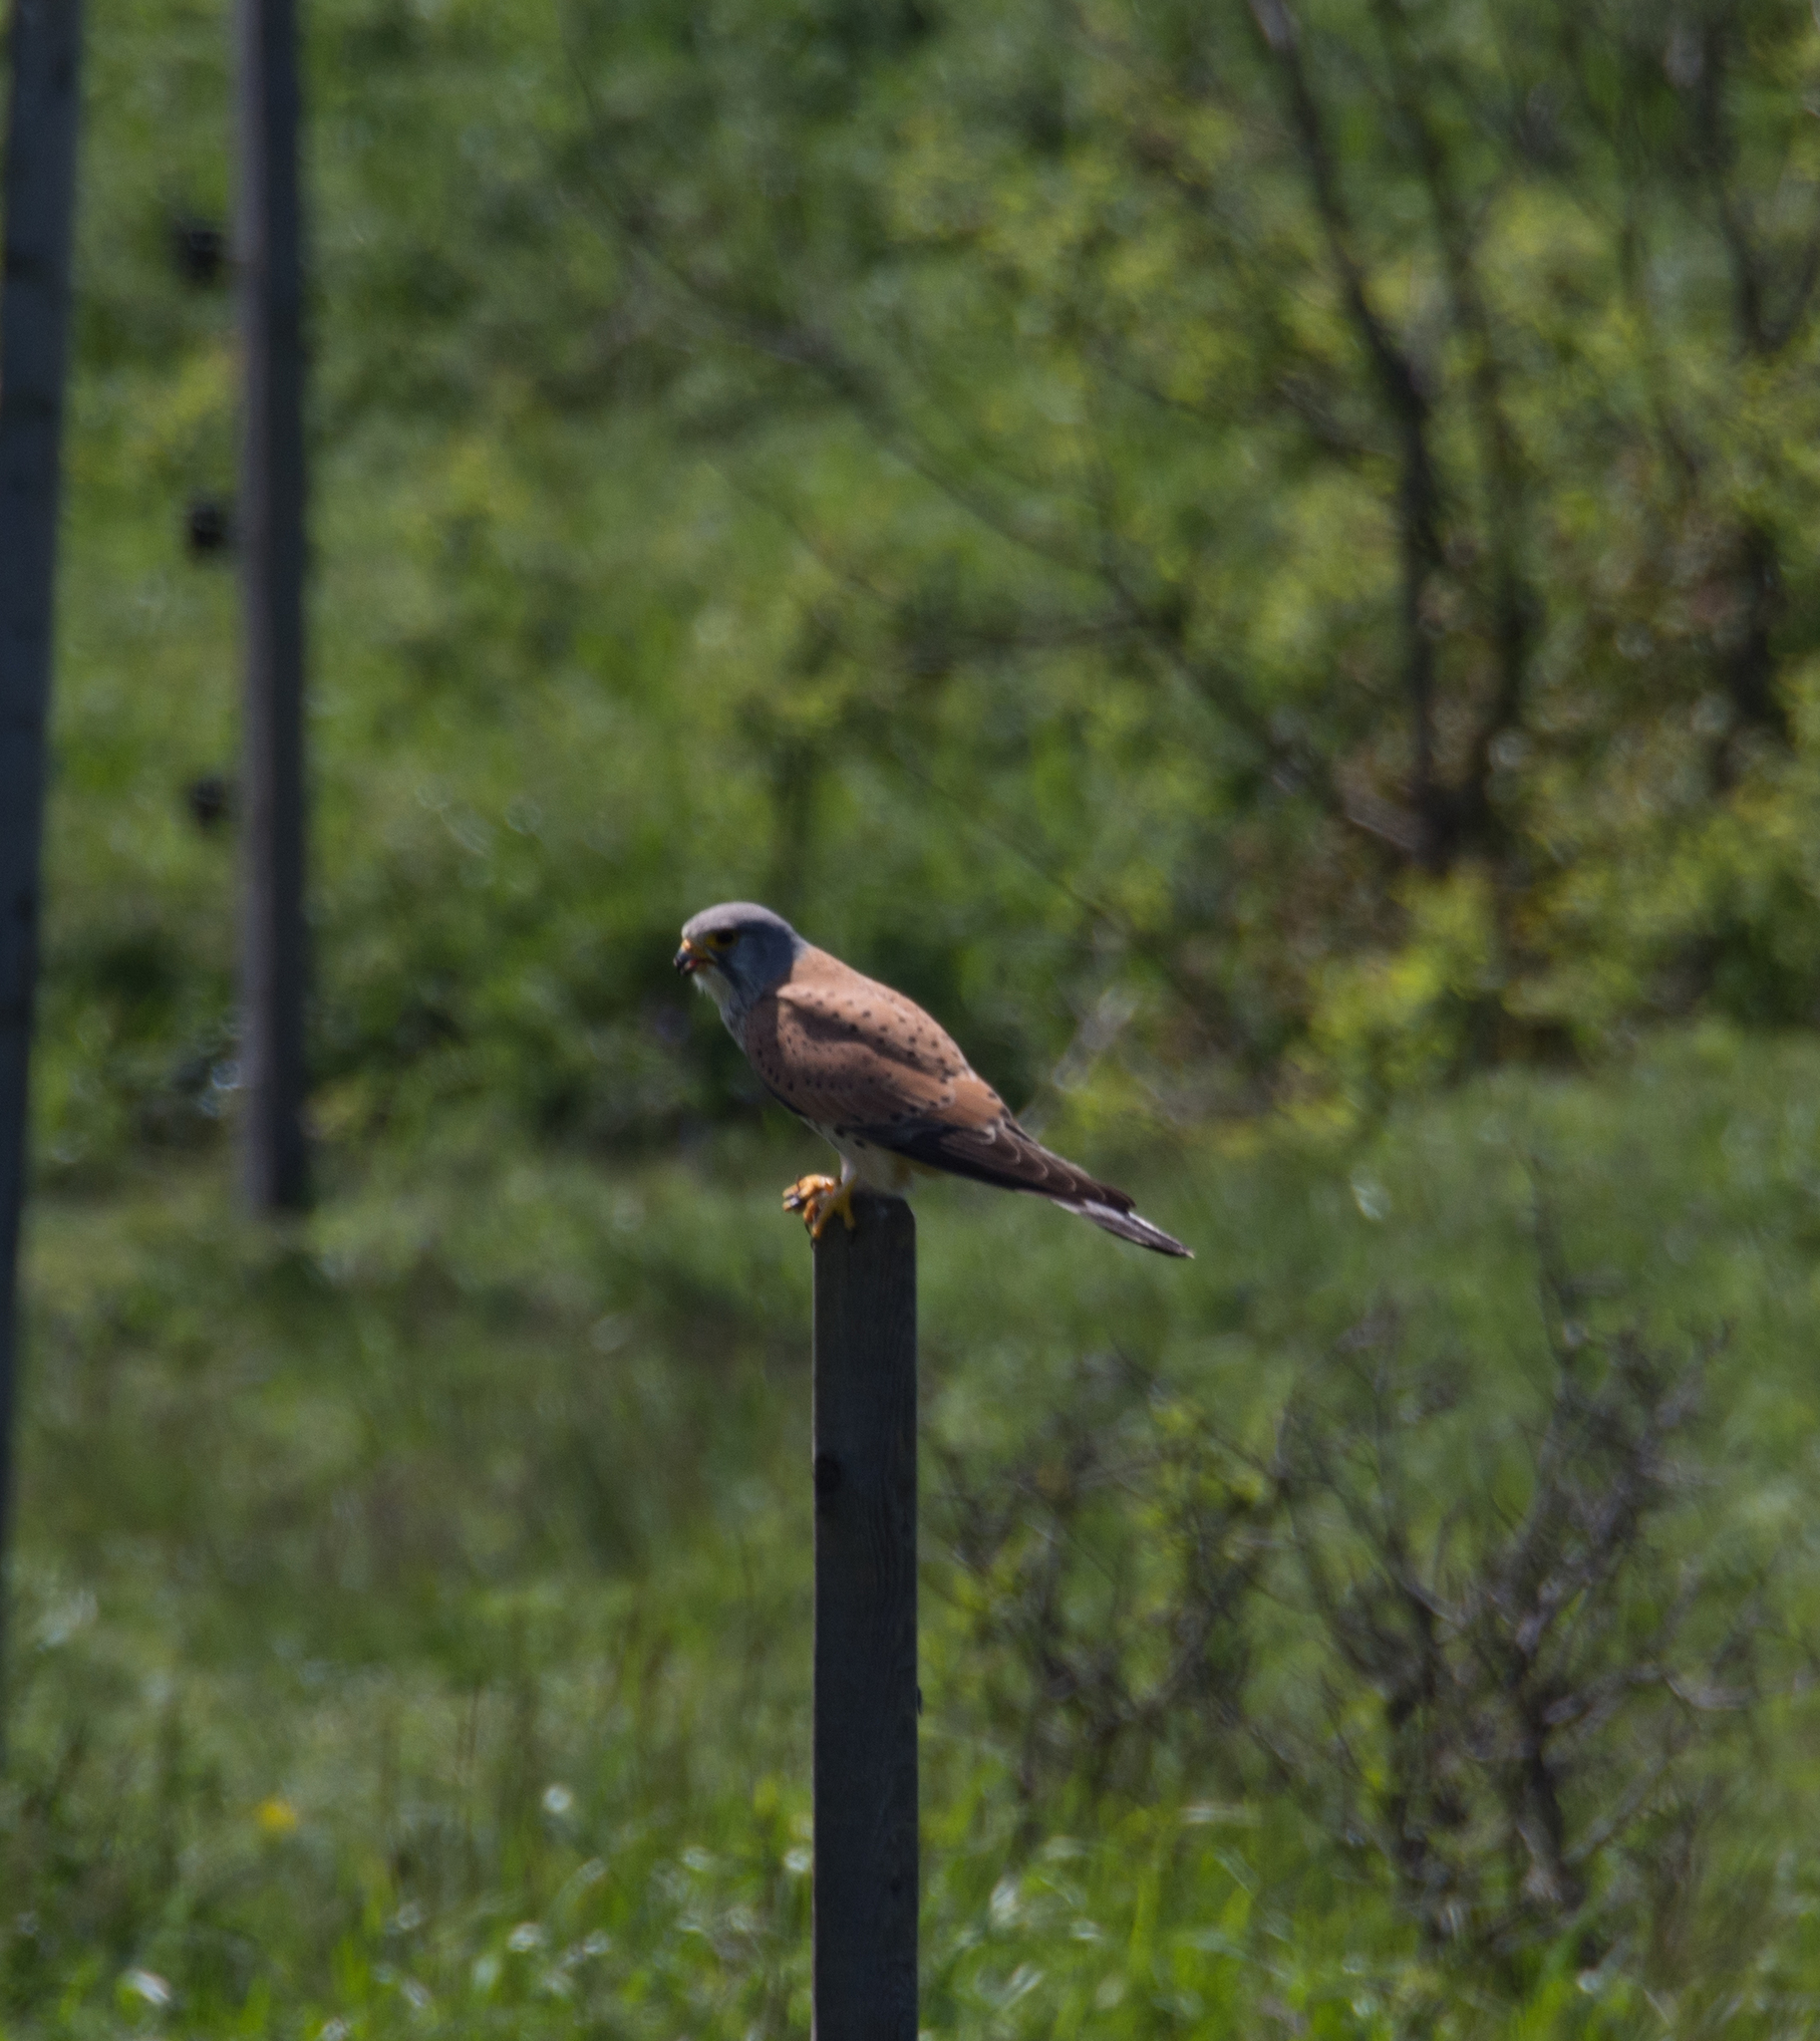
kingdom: Animalia
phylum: Chordata
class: Aves
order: Falconiformes
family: Falconidae
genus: Falco
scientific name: Falco tinnunculus
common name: Common kestrel
